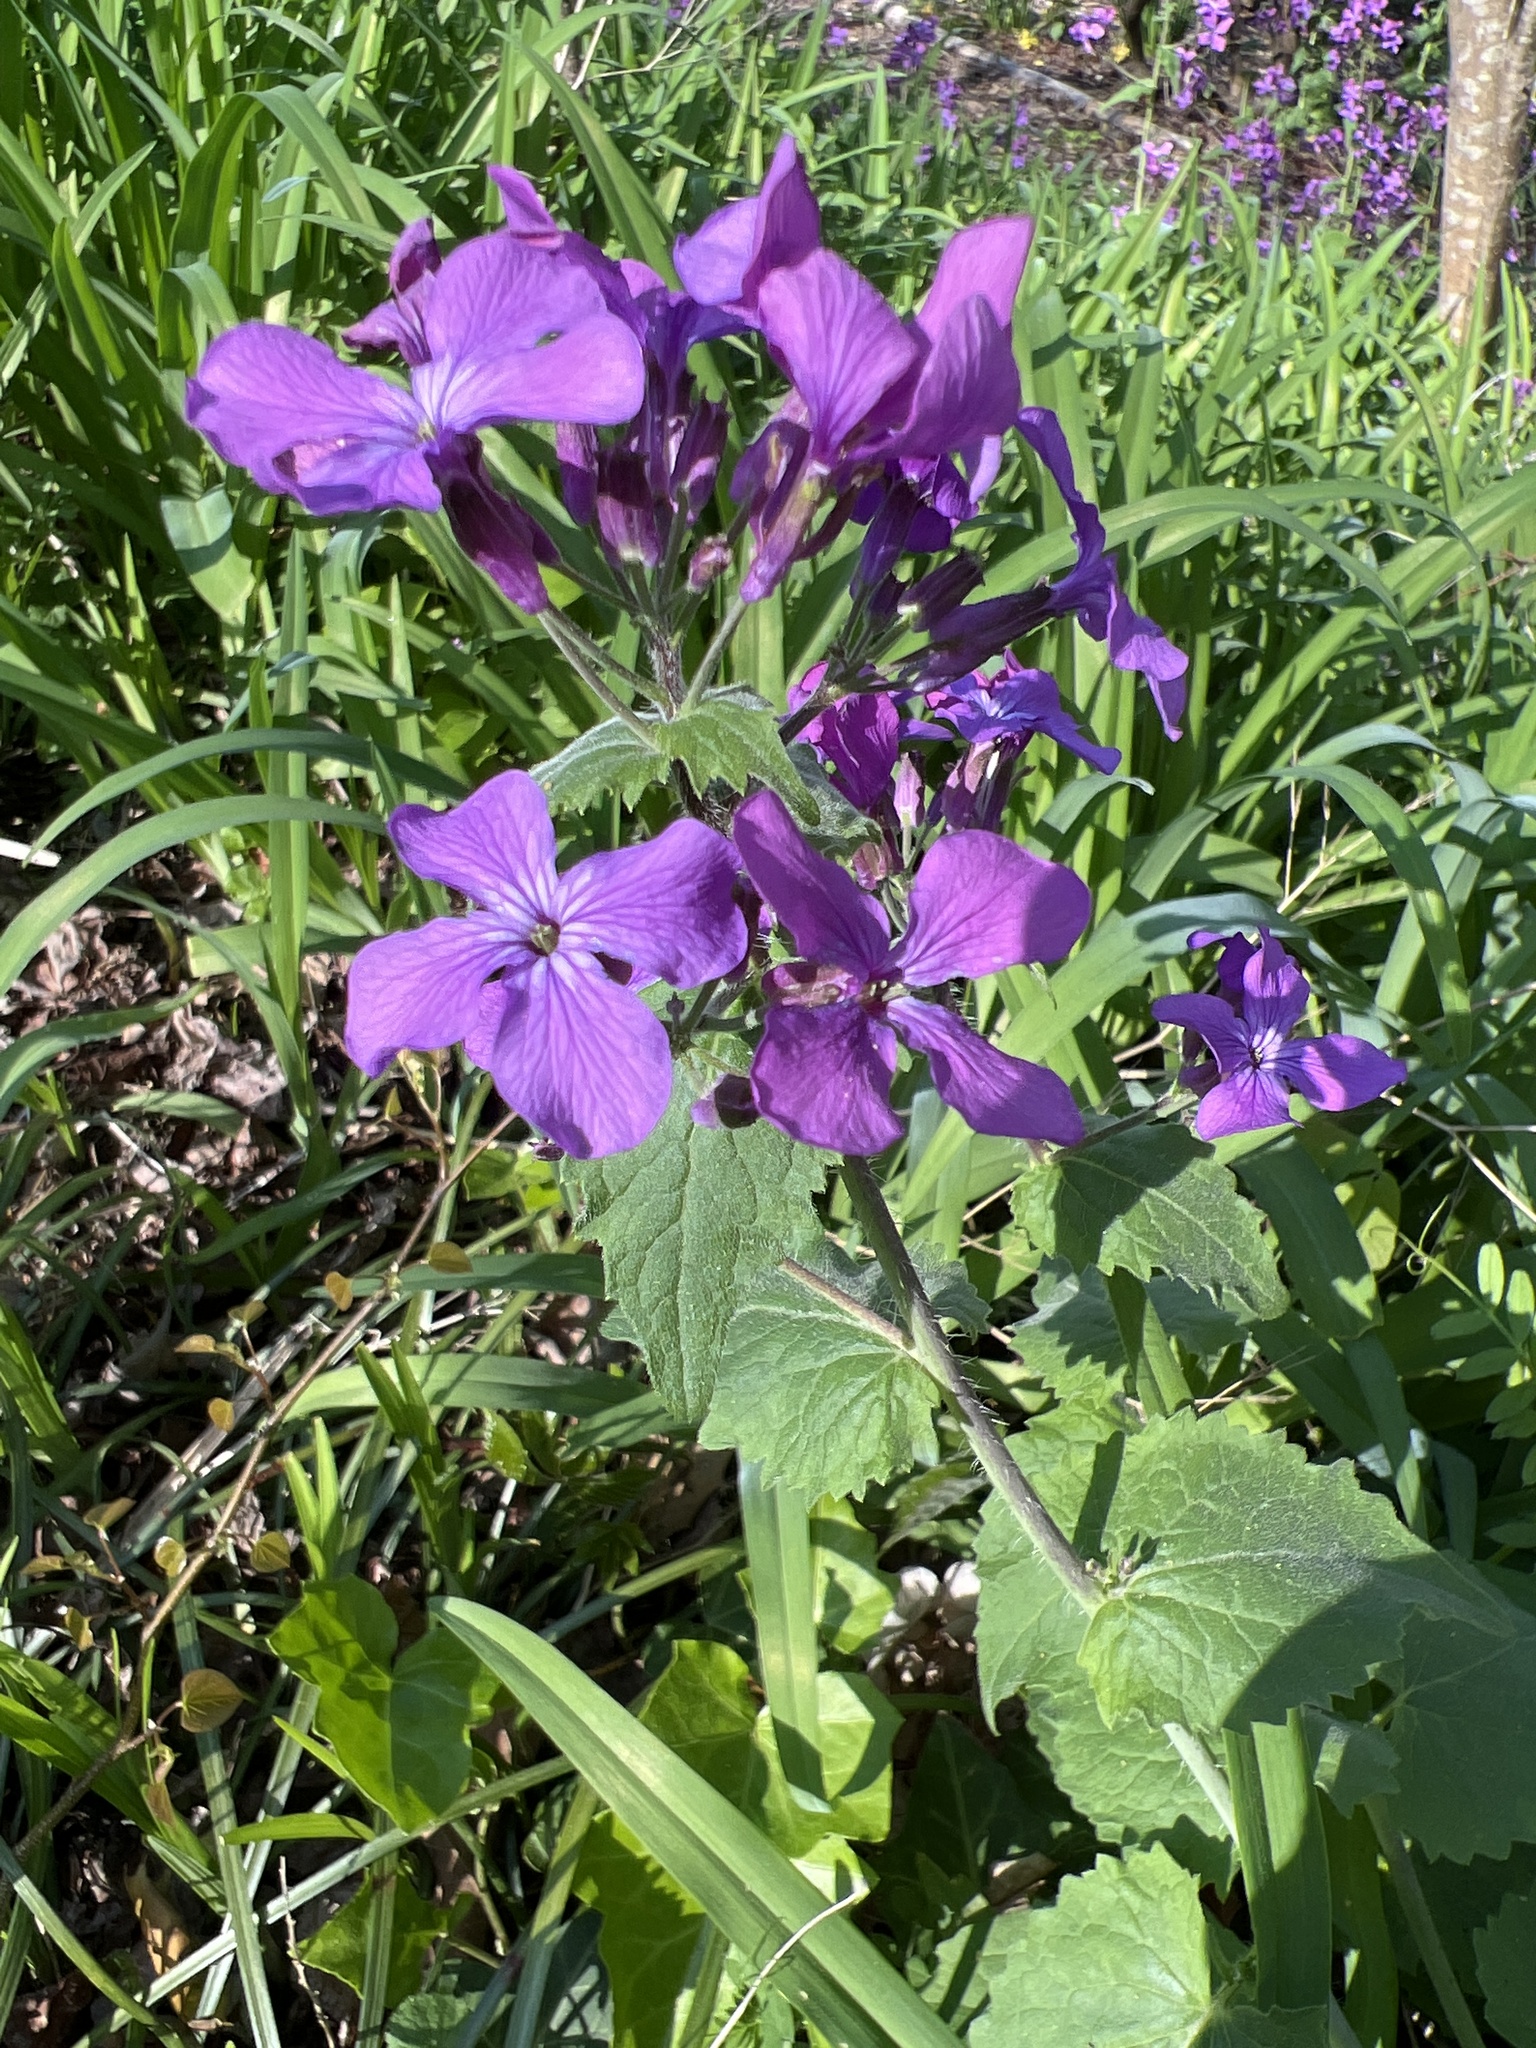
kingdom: Plantae
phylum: Tracheophyta
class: Magnoliopsida
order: Brassicales
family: Brassicaceae
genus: Lunaria
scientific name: Lunaria annua
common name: Honesty
